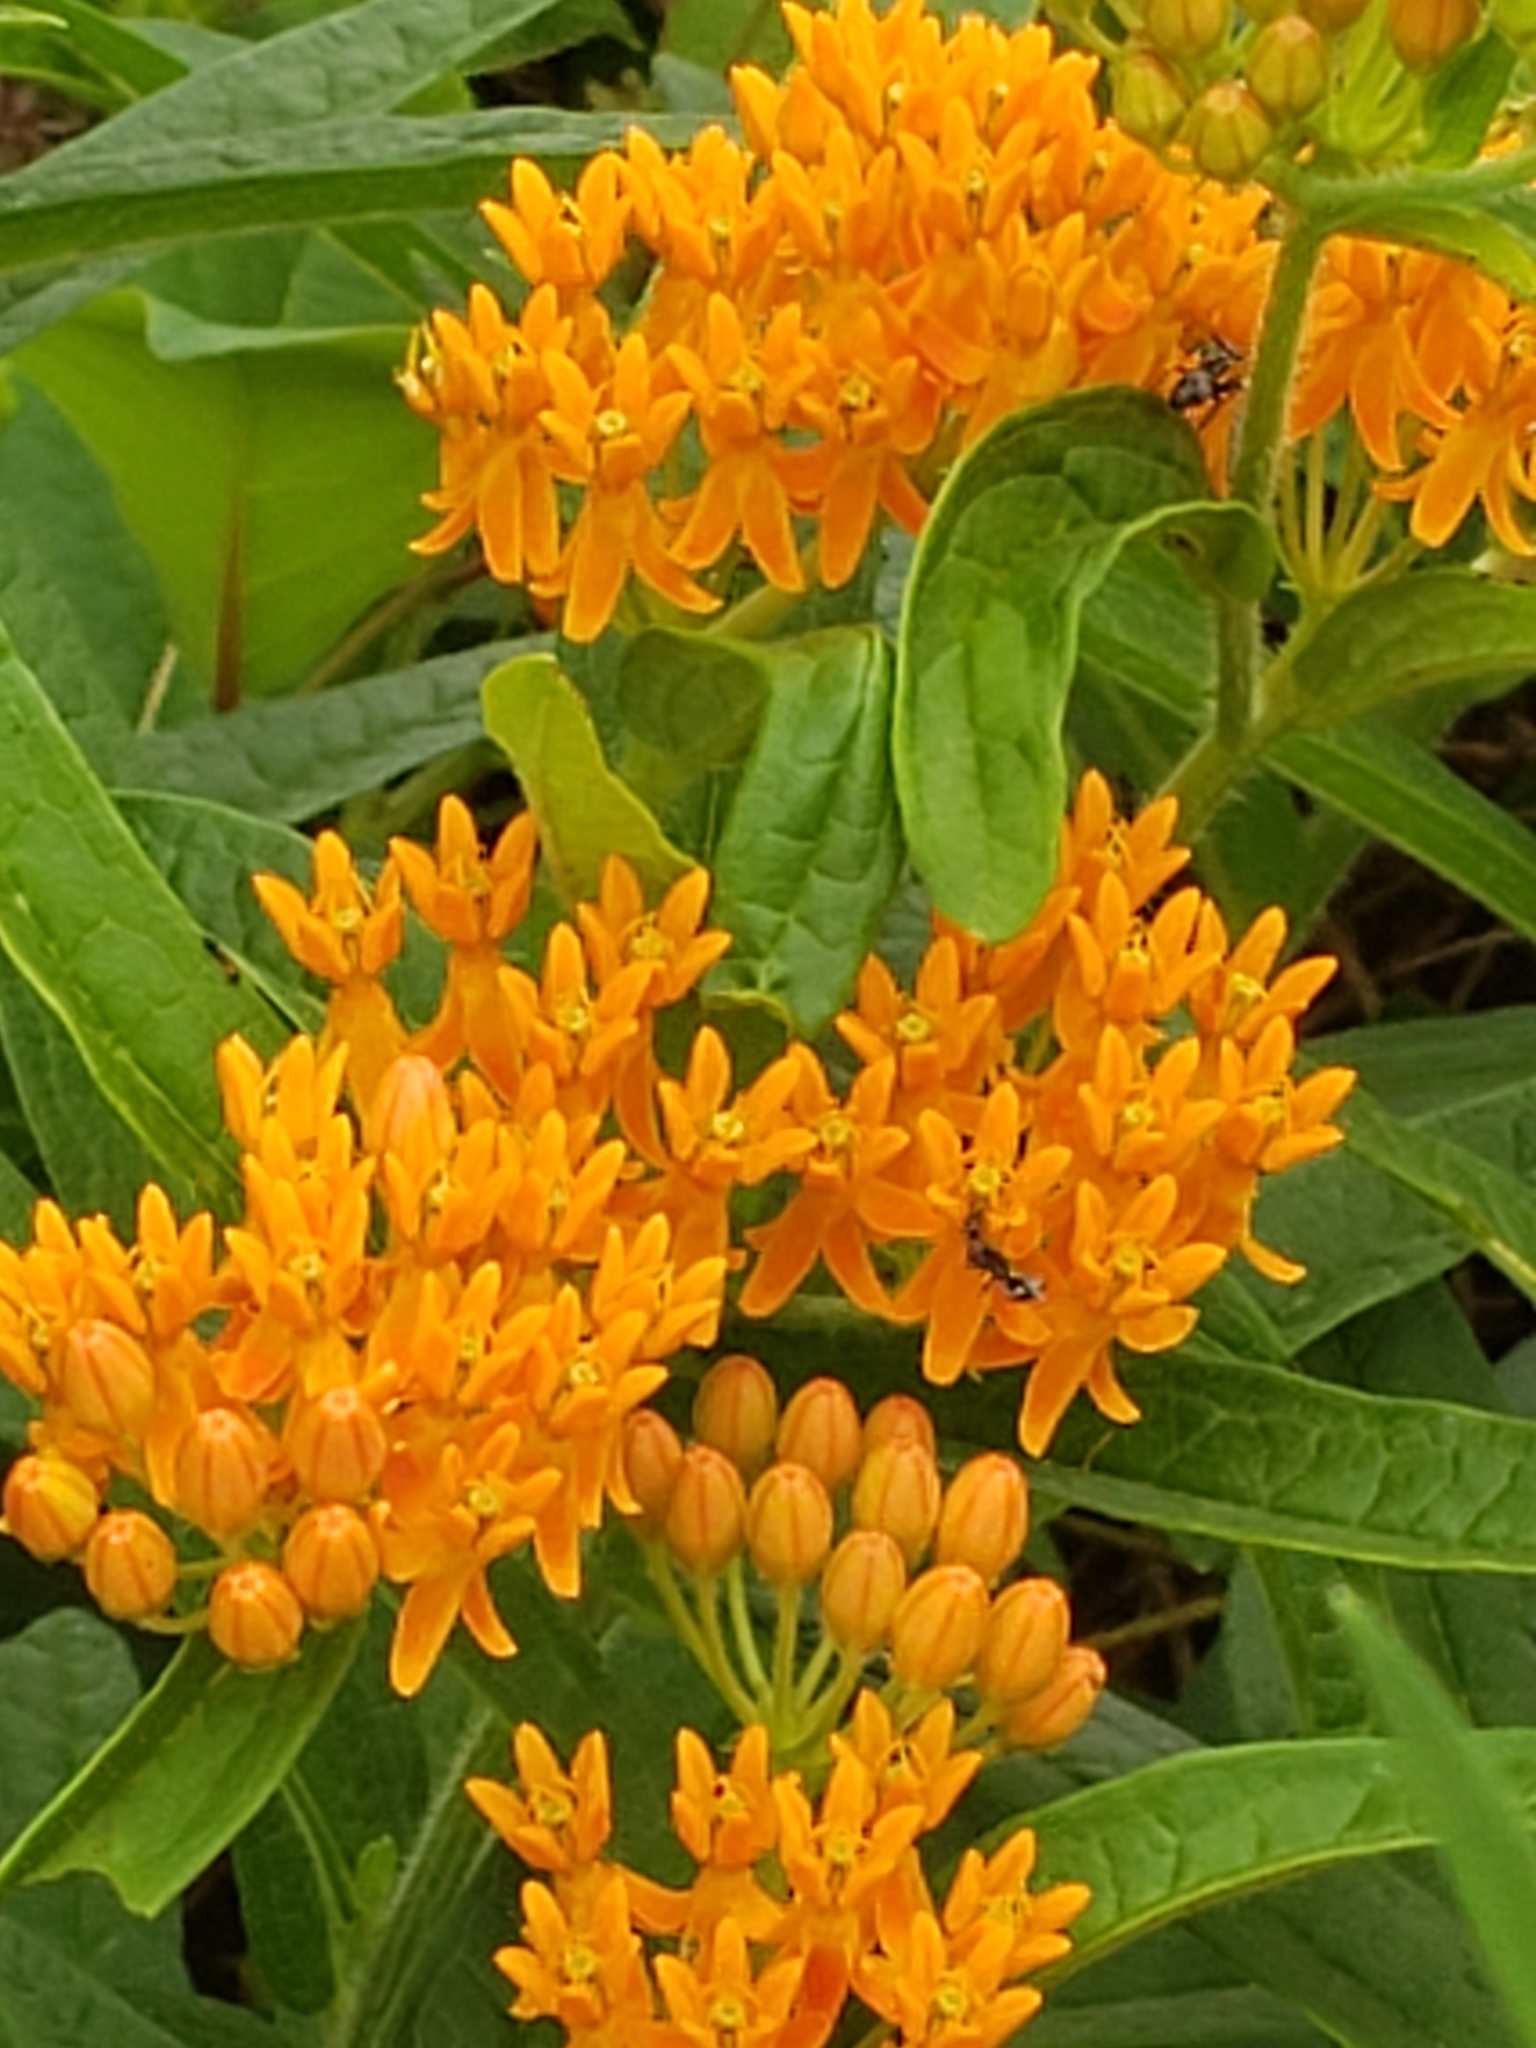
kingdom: Plantae
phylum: Tracheophyta
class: Magnoliopsida
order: Gentianales
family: Apocynaceae
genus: Asclepias
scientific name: Asclepias tuberosa
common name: Butterfly milkweed
